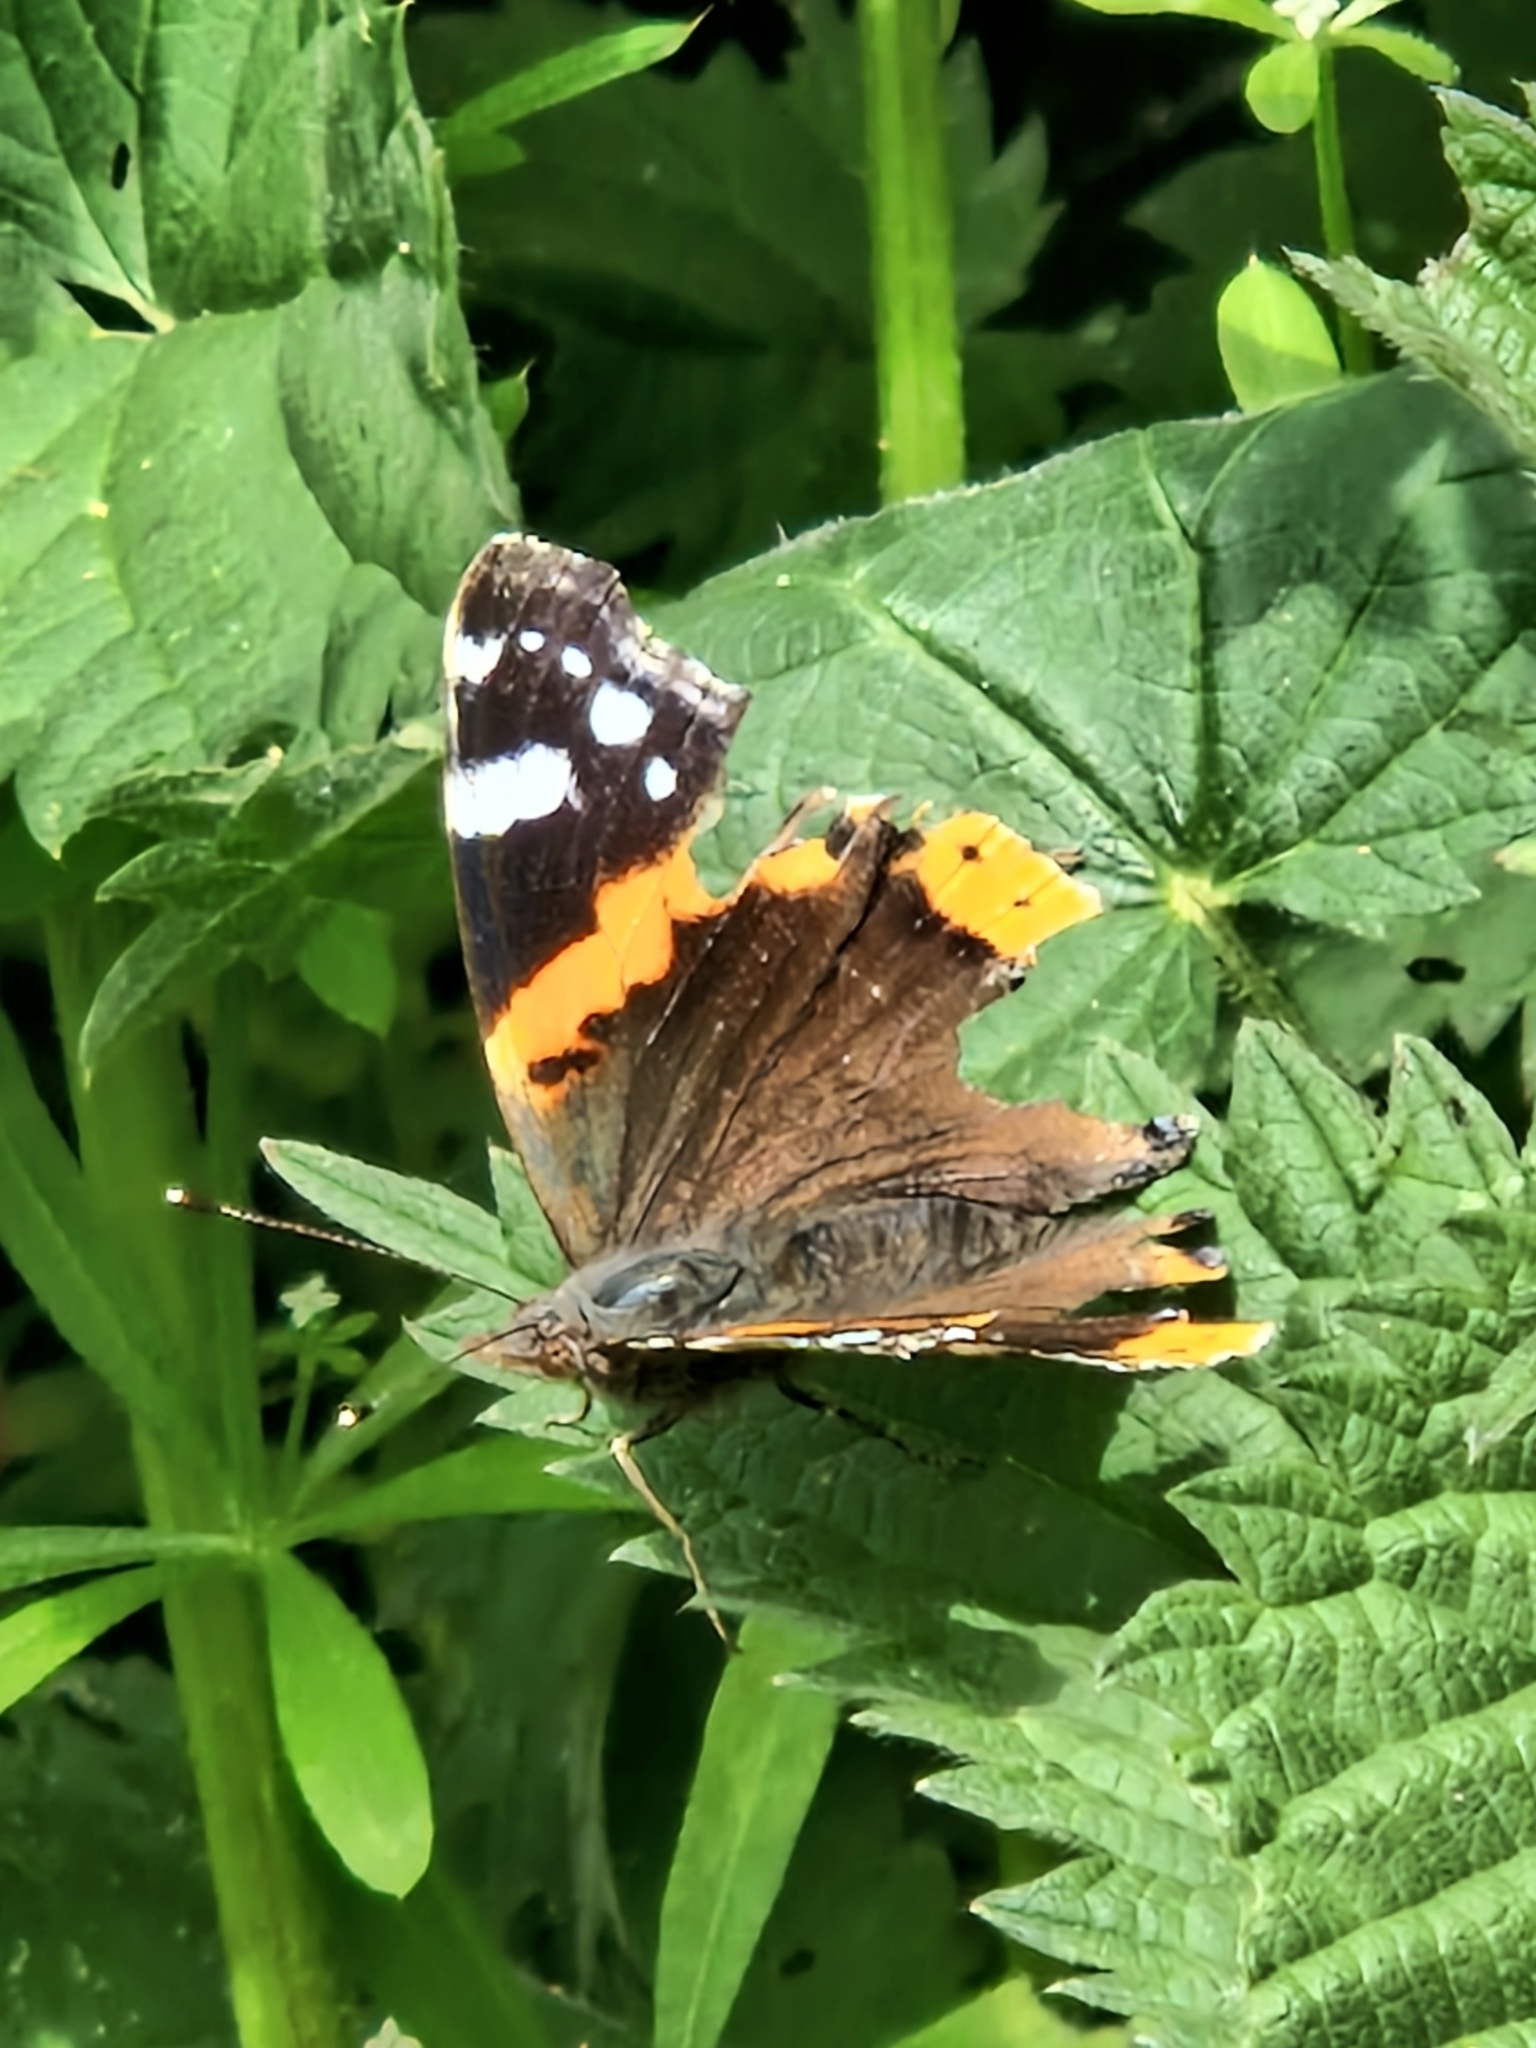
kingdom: Animalia
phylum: Arthropoda
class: Insecta
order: Lepidoptera
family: Nymphalidae
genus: Vanessa
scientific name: Vanessa atalanta
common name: Red admiral
